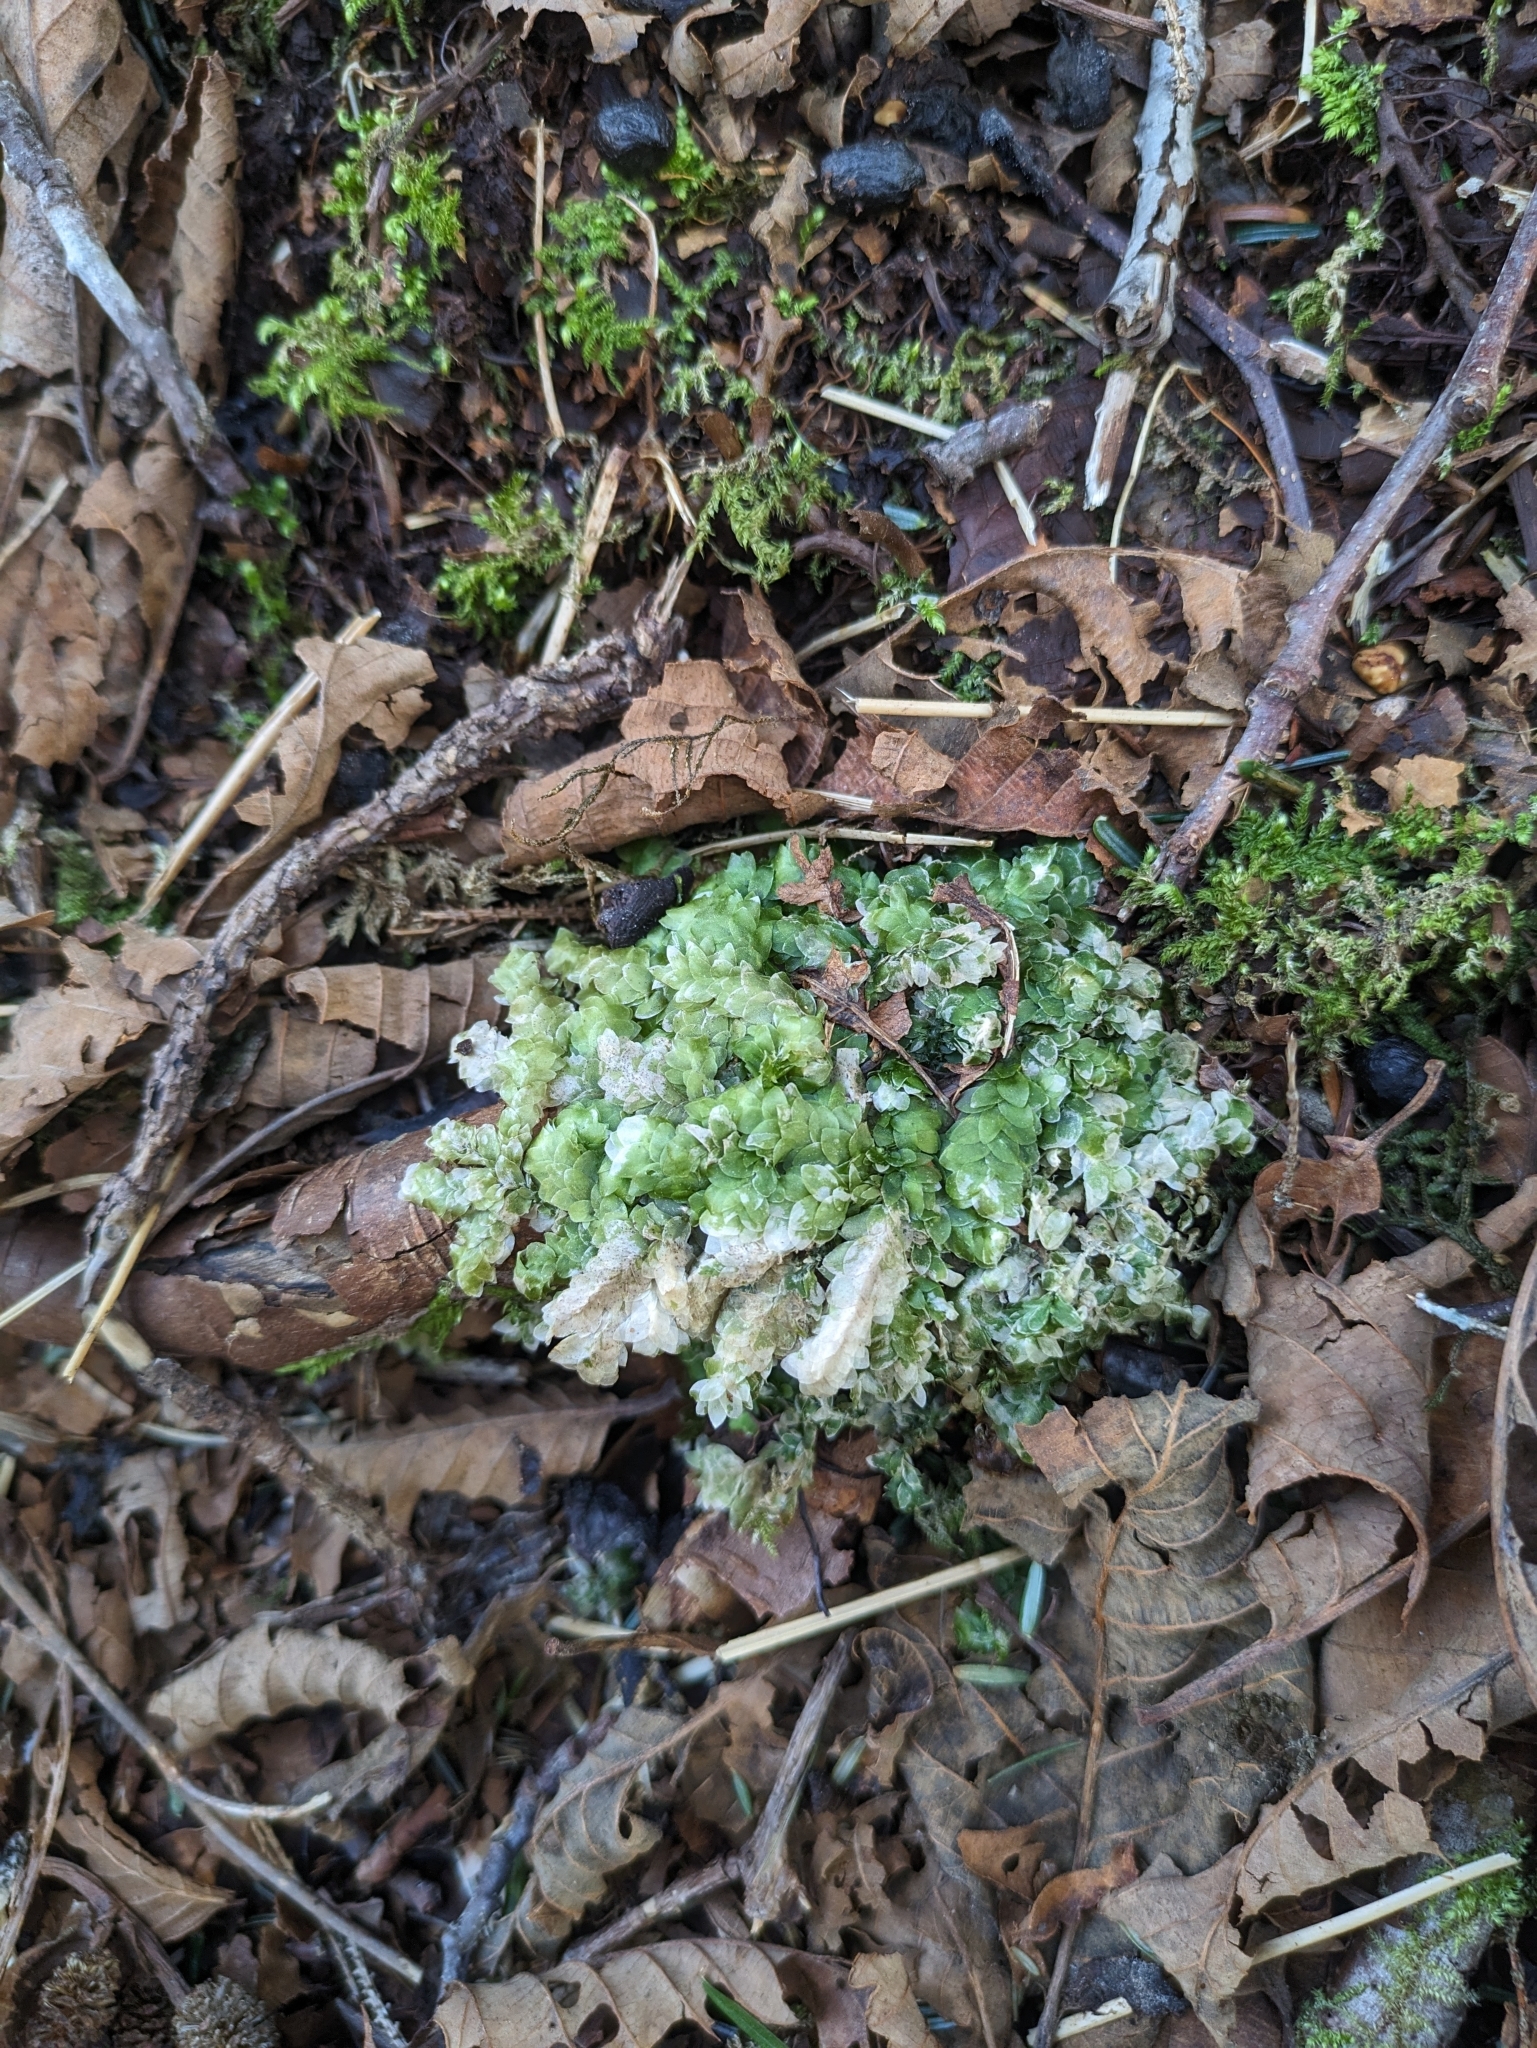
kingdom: Plantae
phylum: Bryophyta
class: Bryopsida
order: Hookeriales
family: Hookeriaceae
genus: Hookeria
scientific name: Hookeria lucens
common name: Shining hookeria
